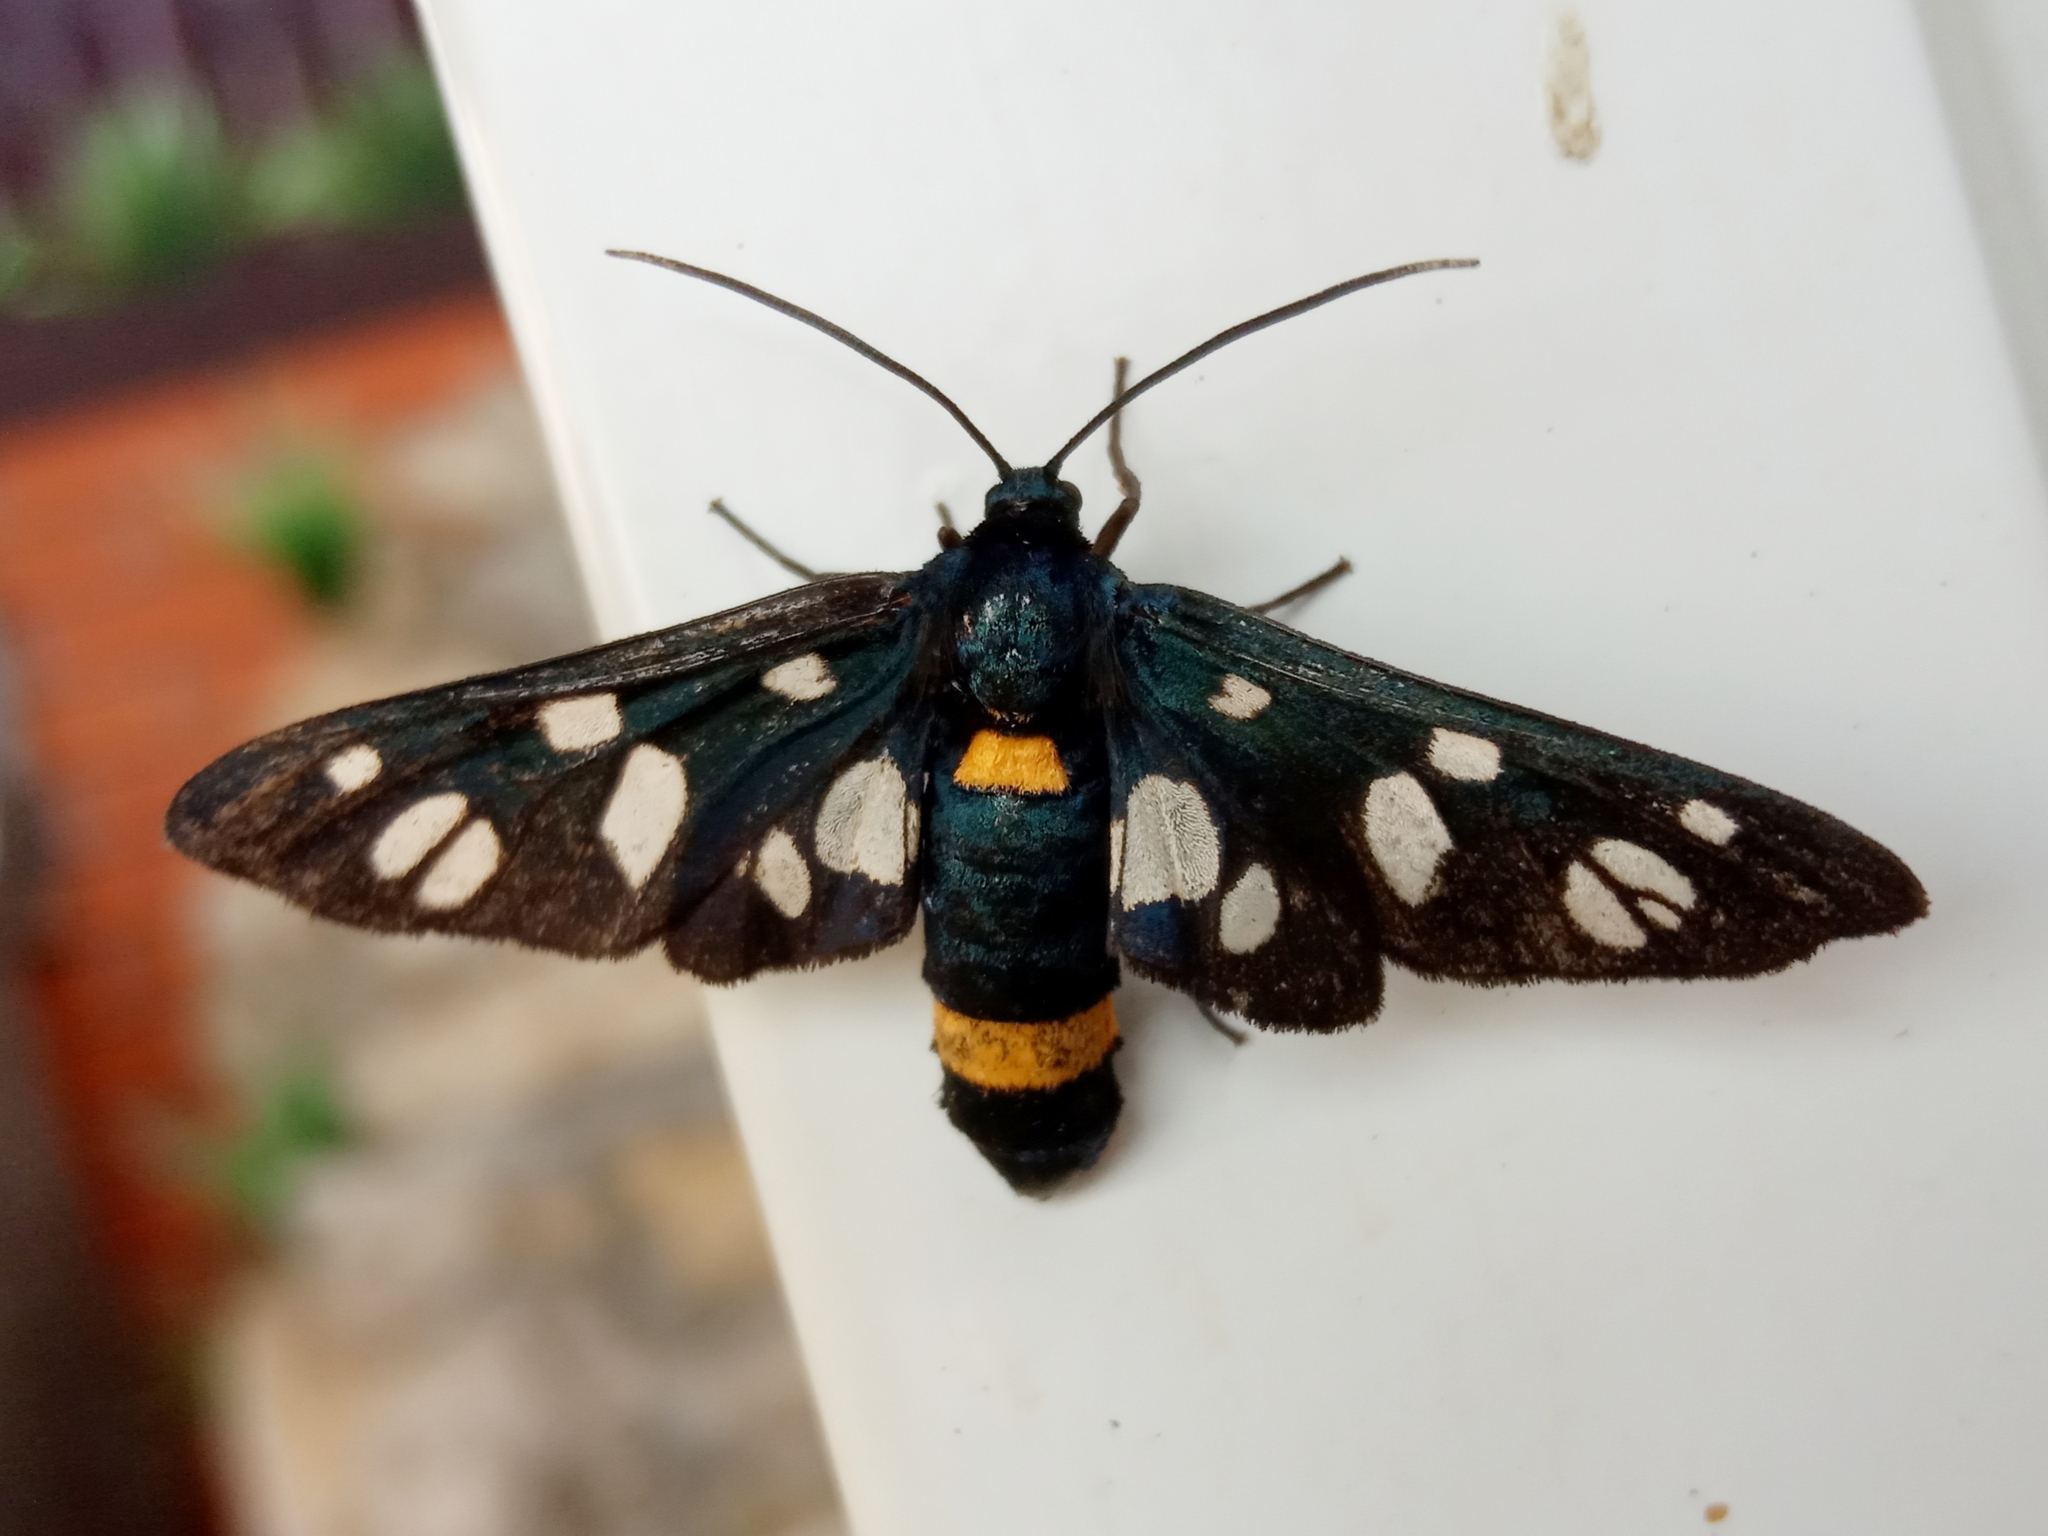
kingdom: Animalia
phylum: Arthropoda
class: Insecta
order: Lepidoptera
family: Erebidae
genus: Amata
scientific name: Amata nigricornis
